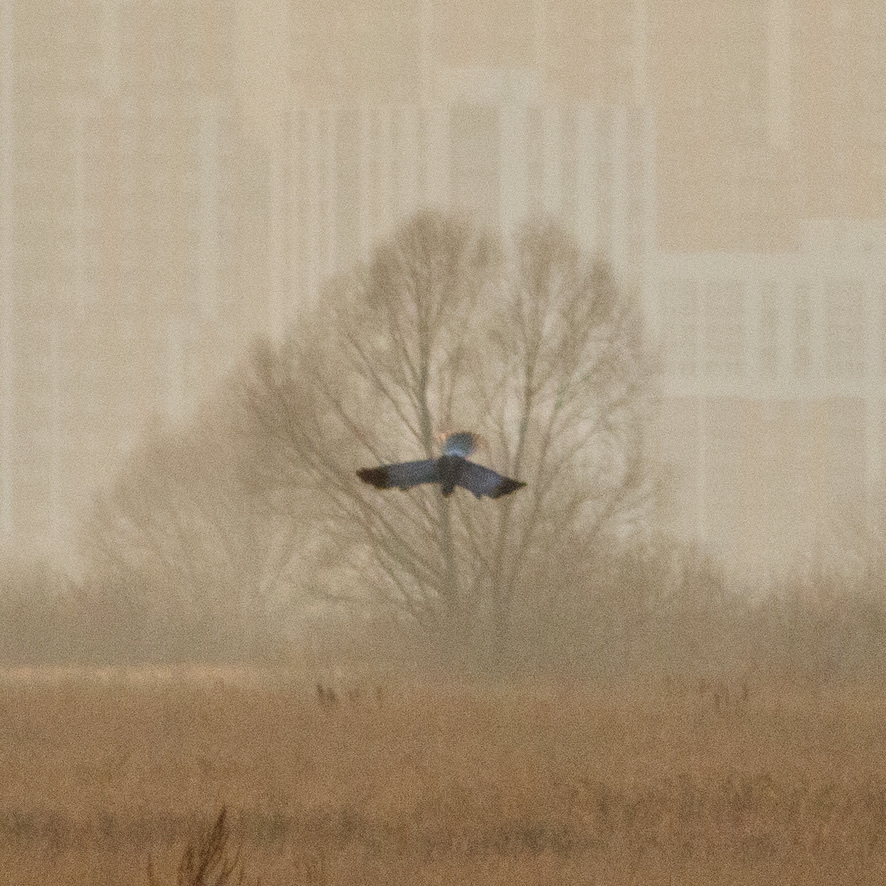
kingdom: Animalia
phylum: Chordata
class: Aves
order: Accipitriformes
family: Accipitridae
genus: Circus
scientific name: Circus cyaneus
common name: Hen harrier
